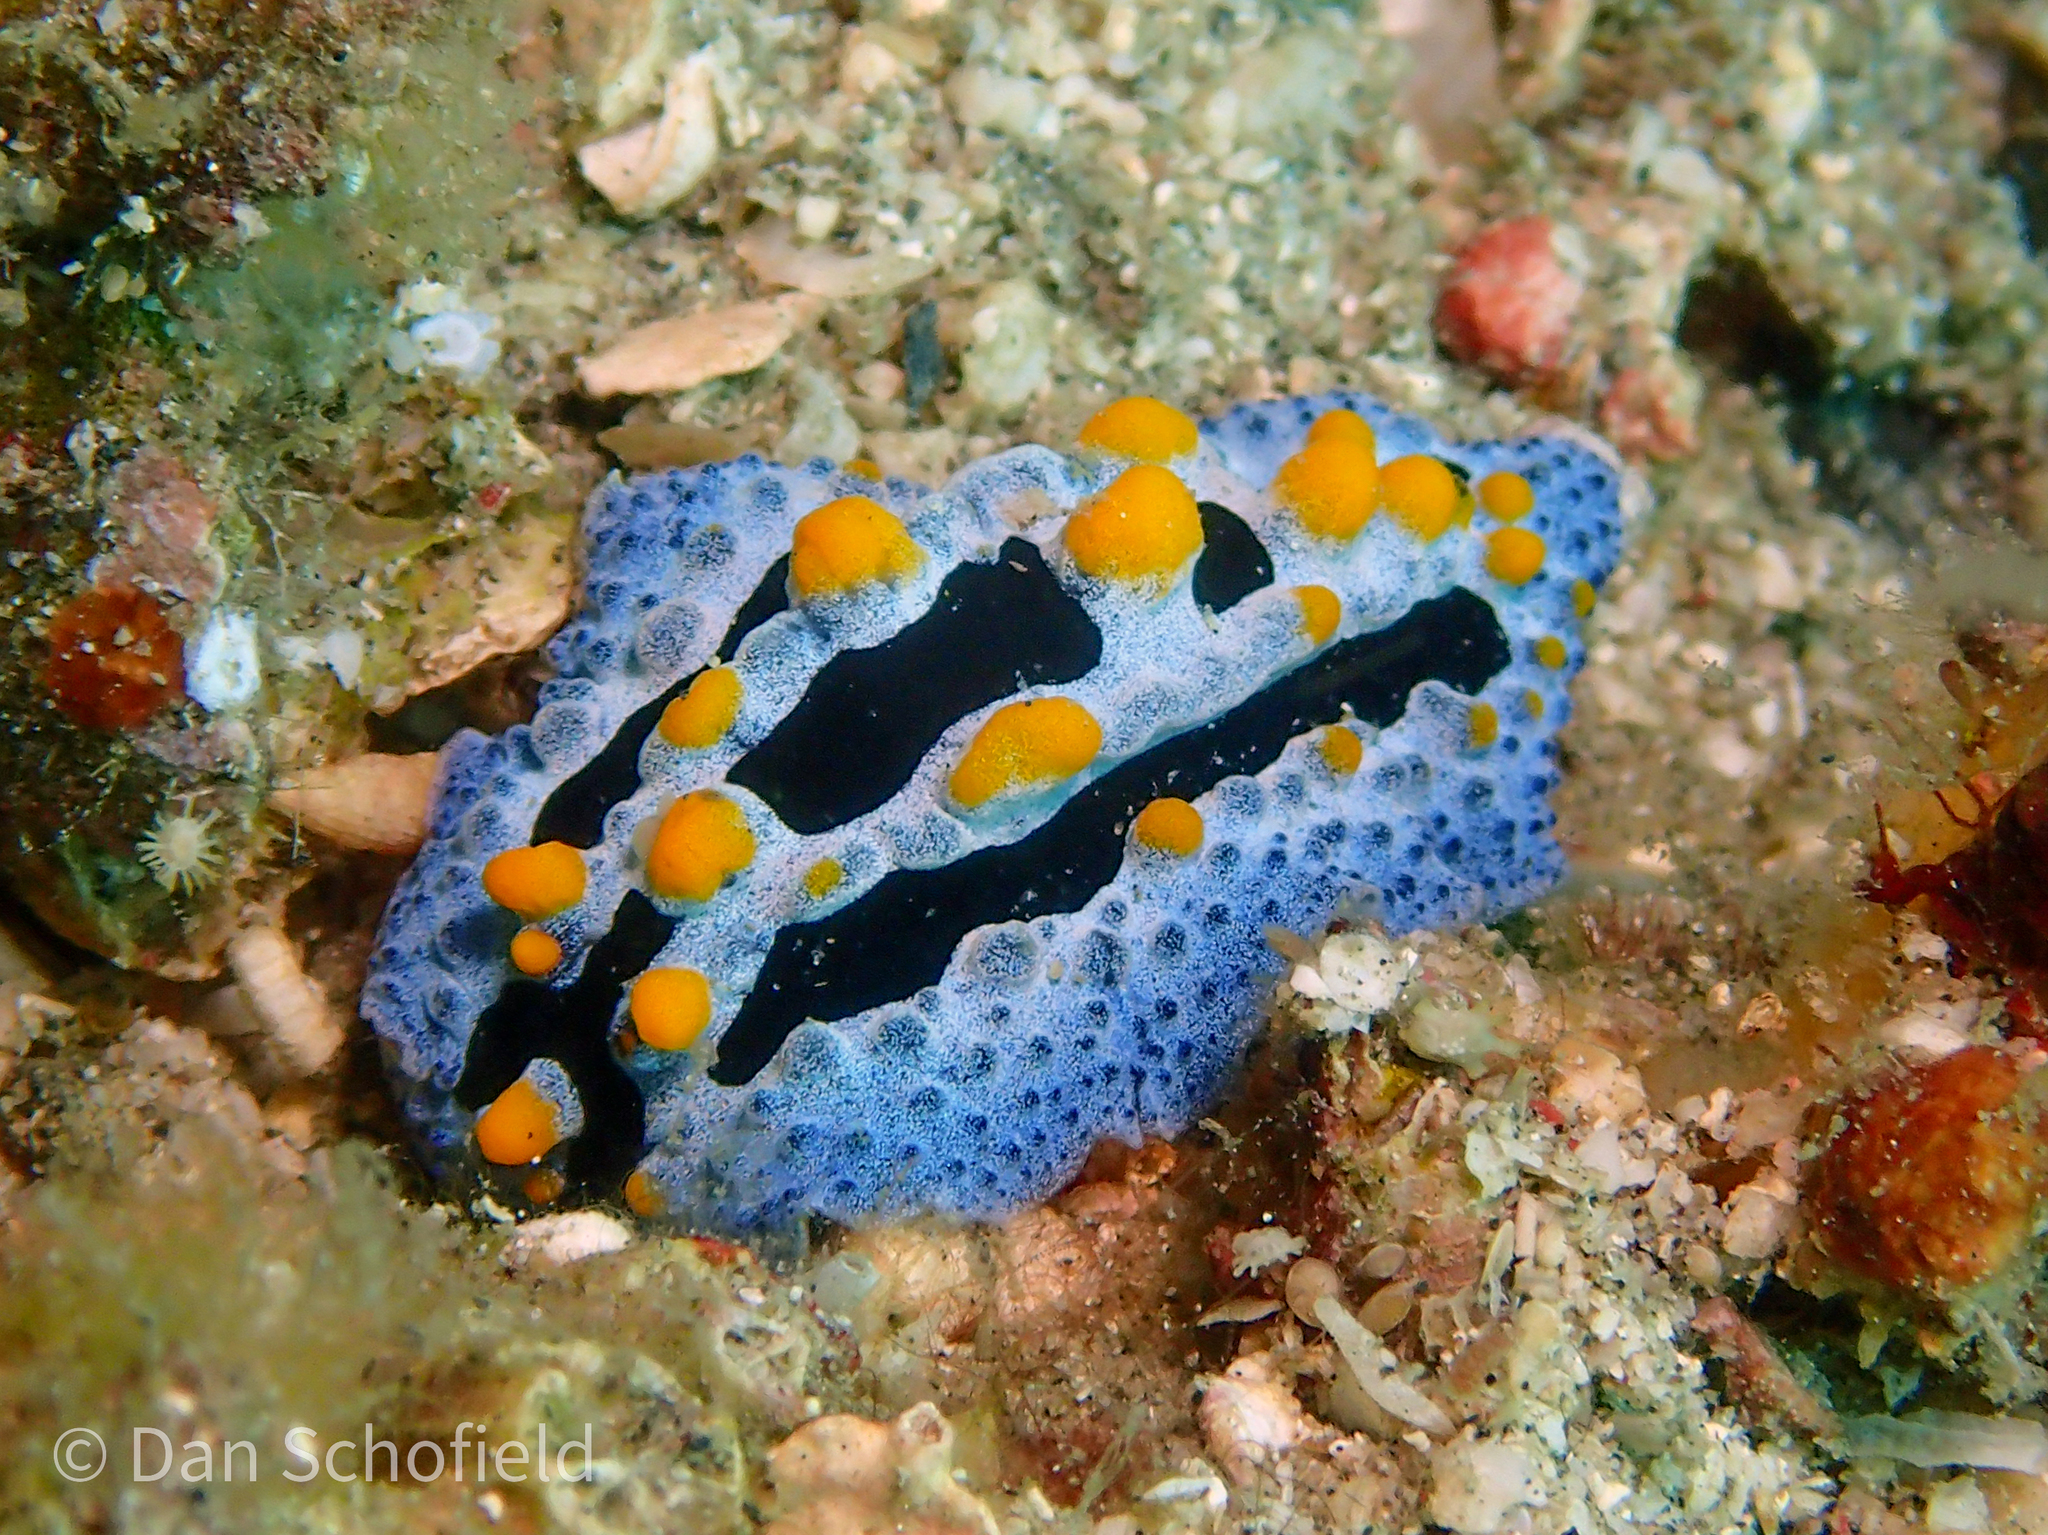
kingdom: Animalia
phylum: Mollusca
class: Gastropoda
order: Nudibranchia
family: Phyllidiidae
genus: Phyllidia
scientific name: Phyllidia coelestis
